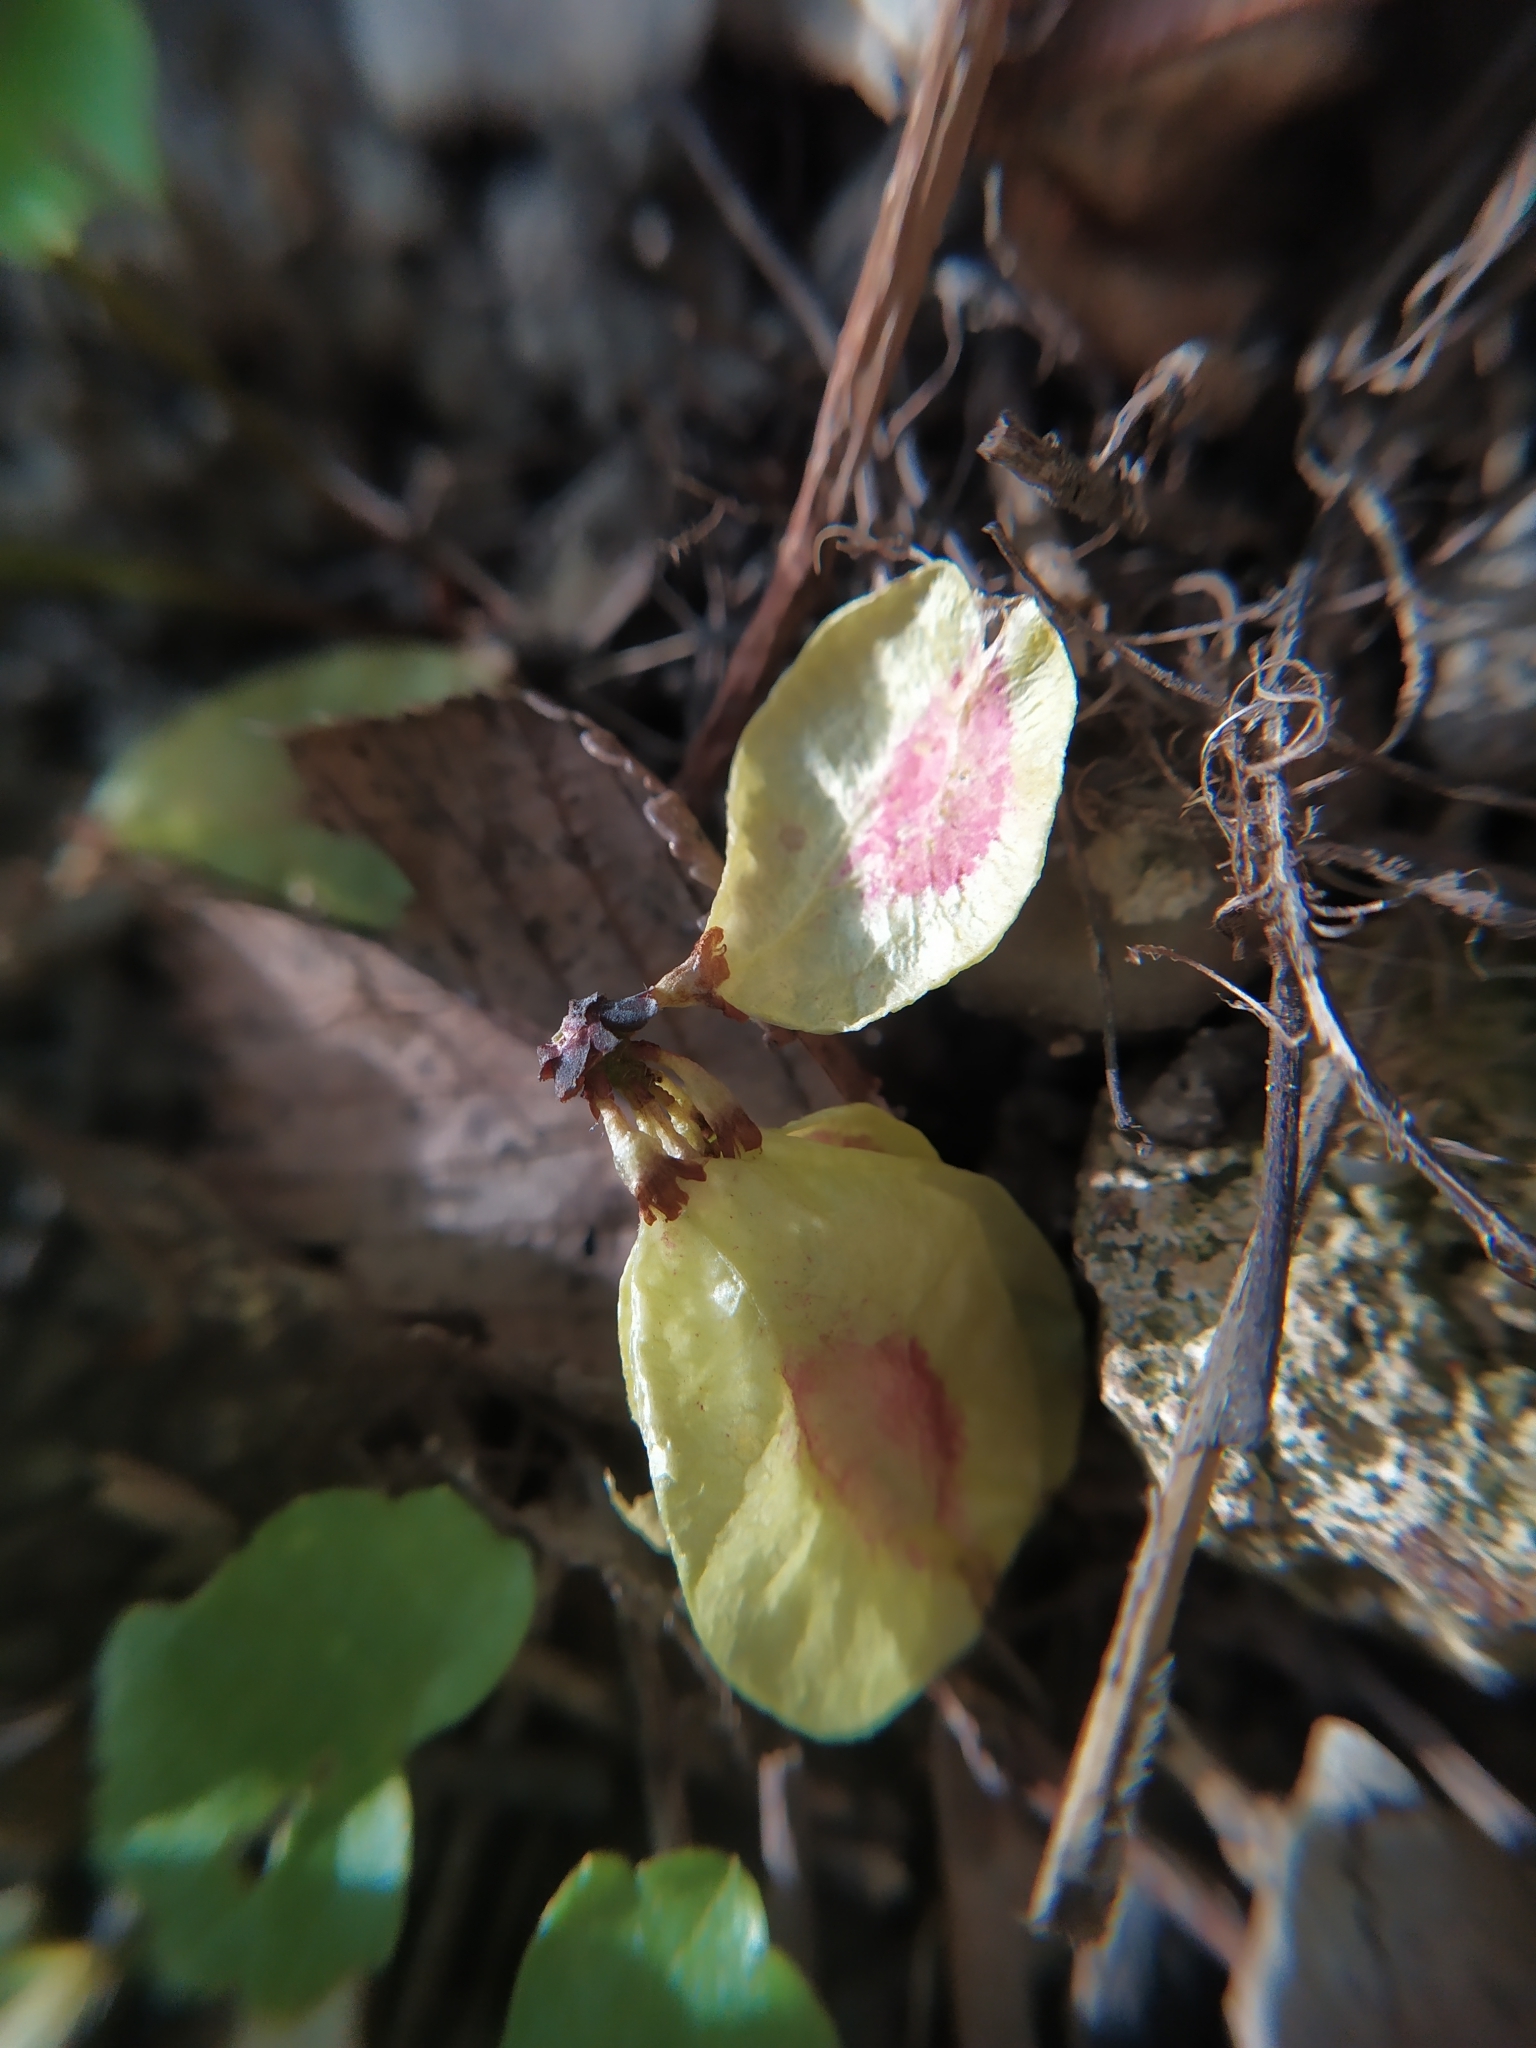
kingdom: Plantae
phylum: Tracheophyta
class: Magnoliopsida
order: Rosales
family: Ulmaceae
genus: Ulmus
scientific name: Ulmus minor
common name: Small-leaved elm
